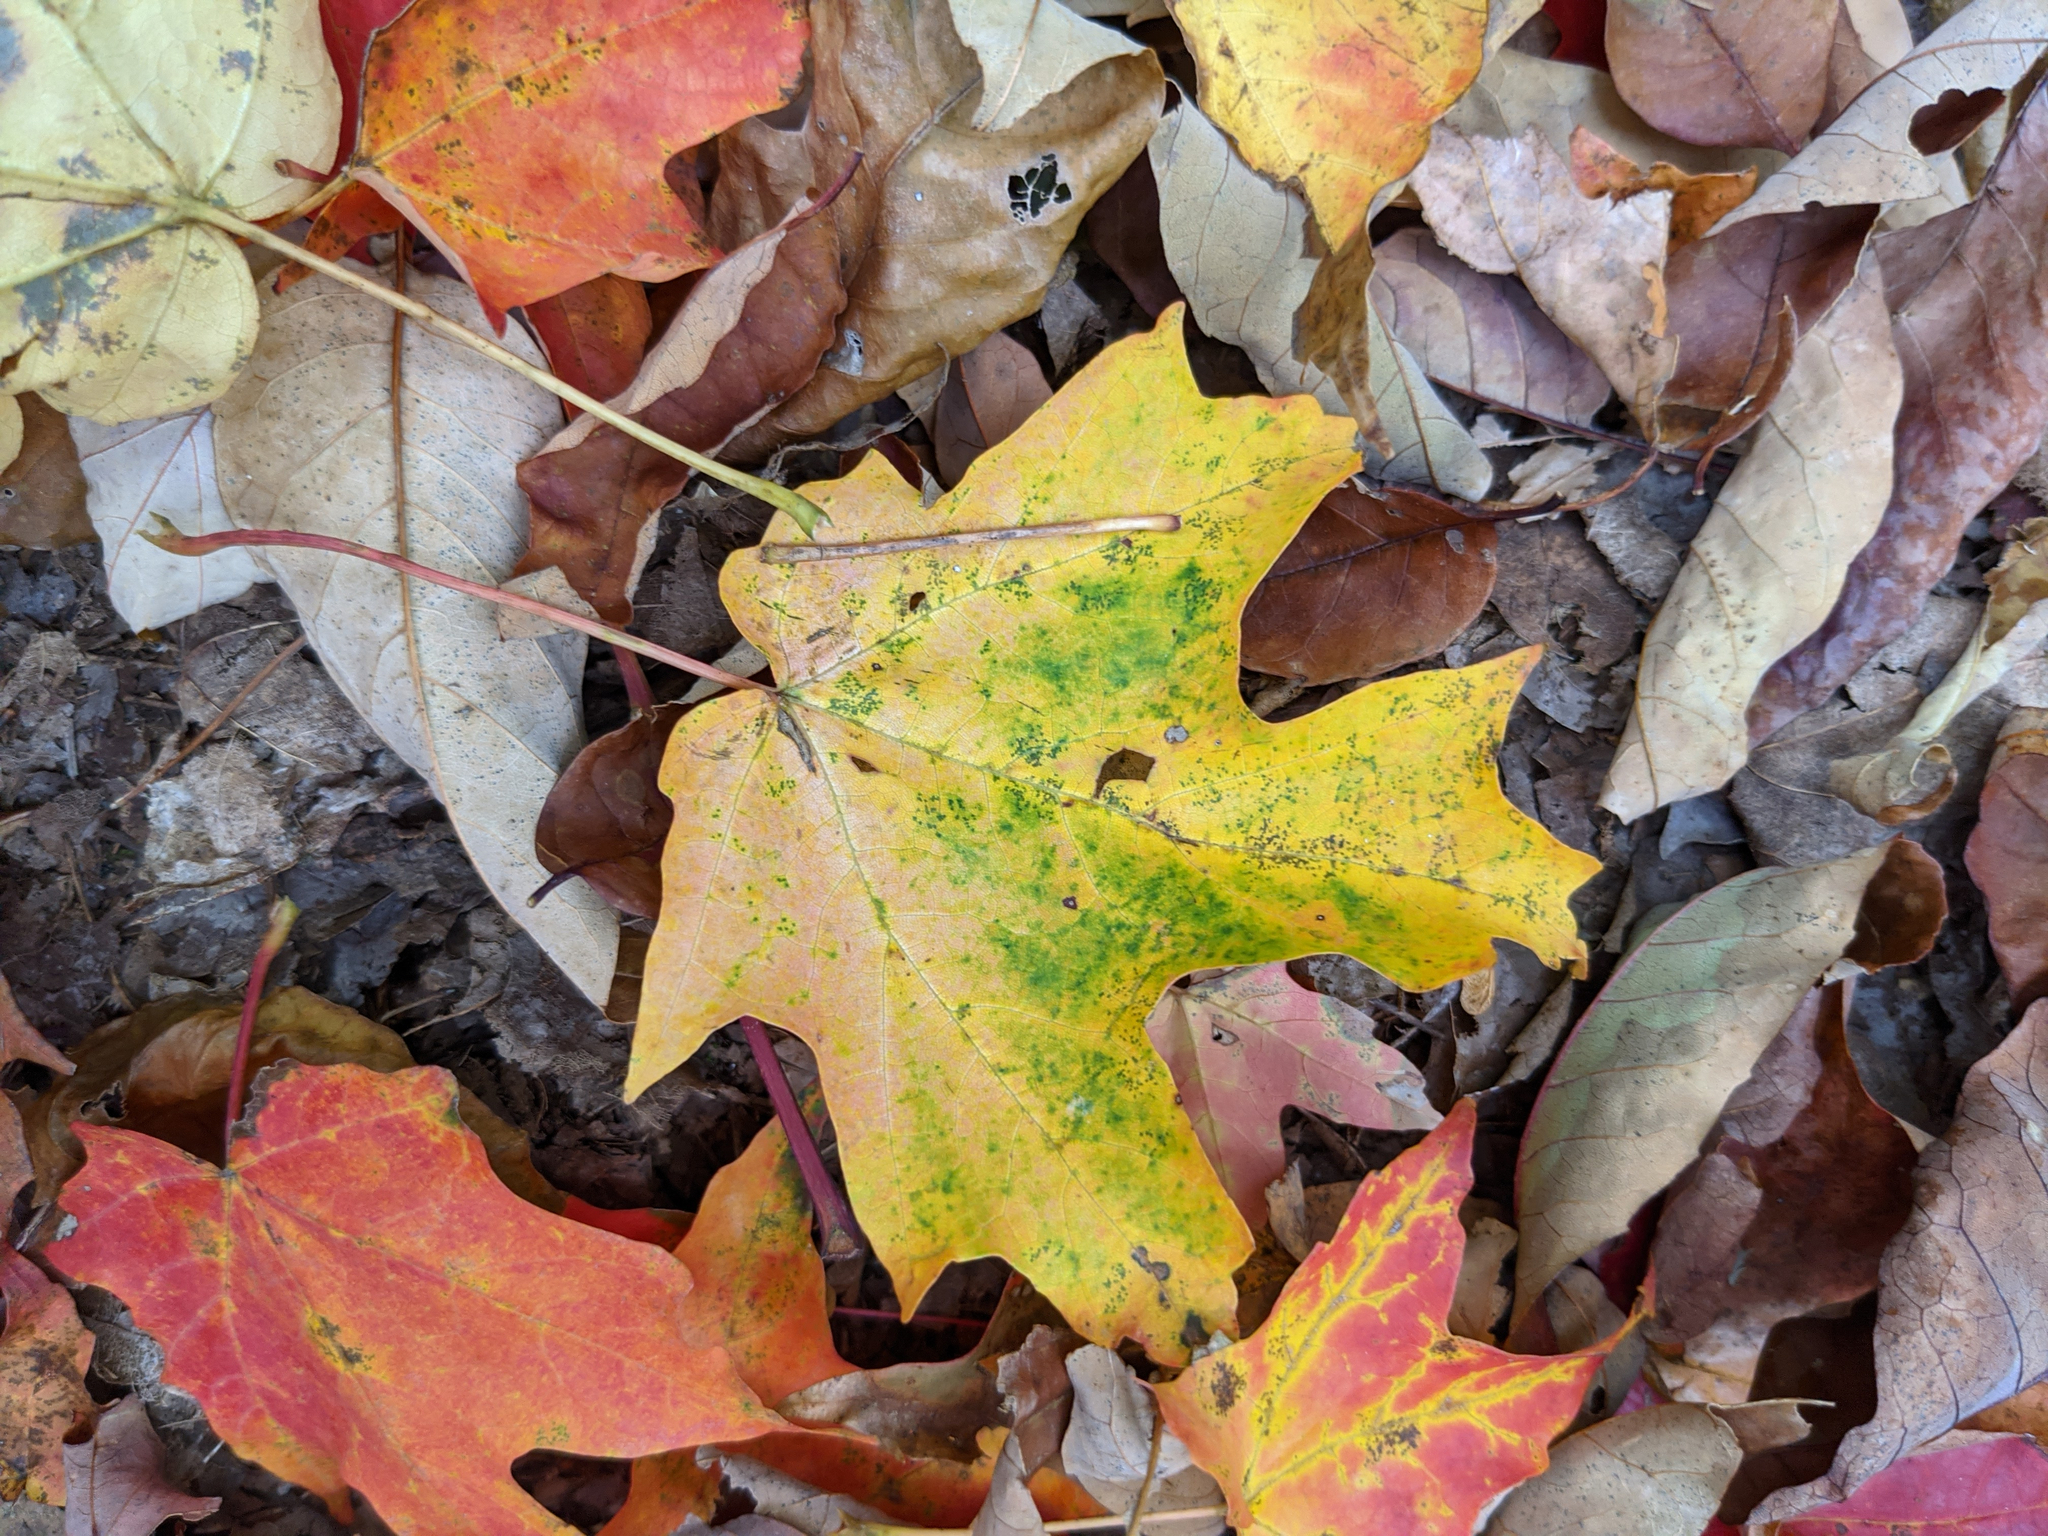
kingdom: Plantae
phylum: Tracheophyta
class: Magnoliopsida
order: Sapindales
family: Sapindaceae
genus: Acer
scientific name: Acer saccharum
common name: Sugar maple
